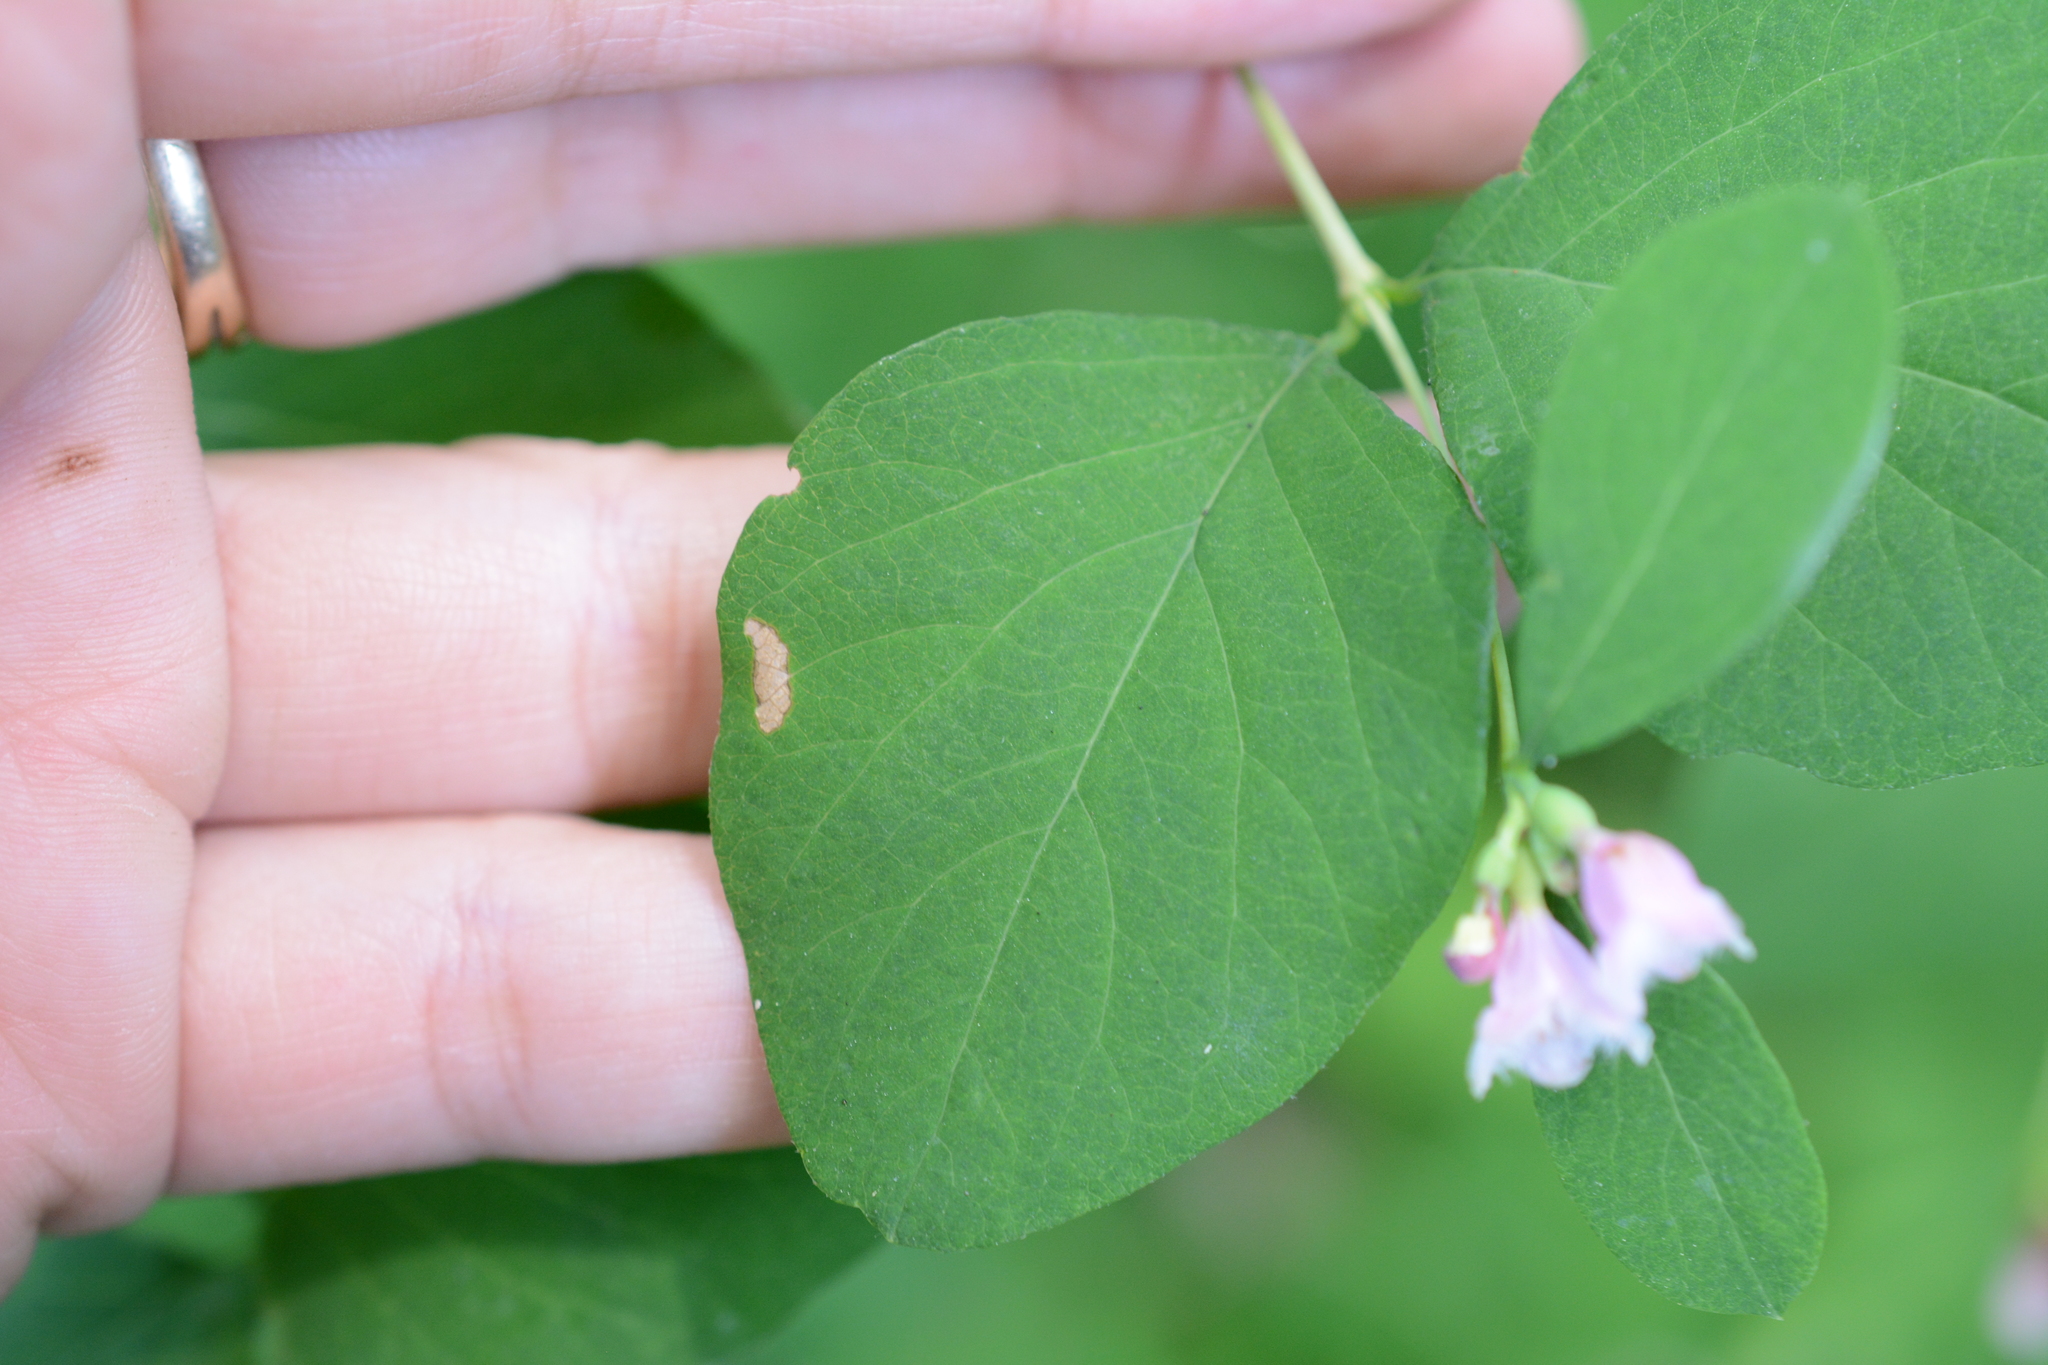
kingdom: Plantae
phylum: Tracheophyta
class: Magnoliopsida
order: Dipsacales
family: Caprifoliaceae
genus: Symphoricarpos
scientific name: Symphoricarpos albus
